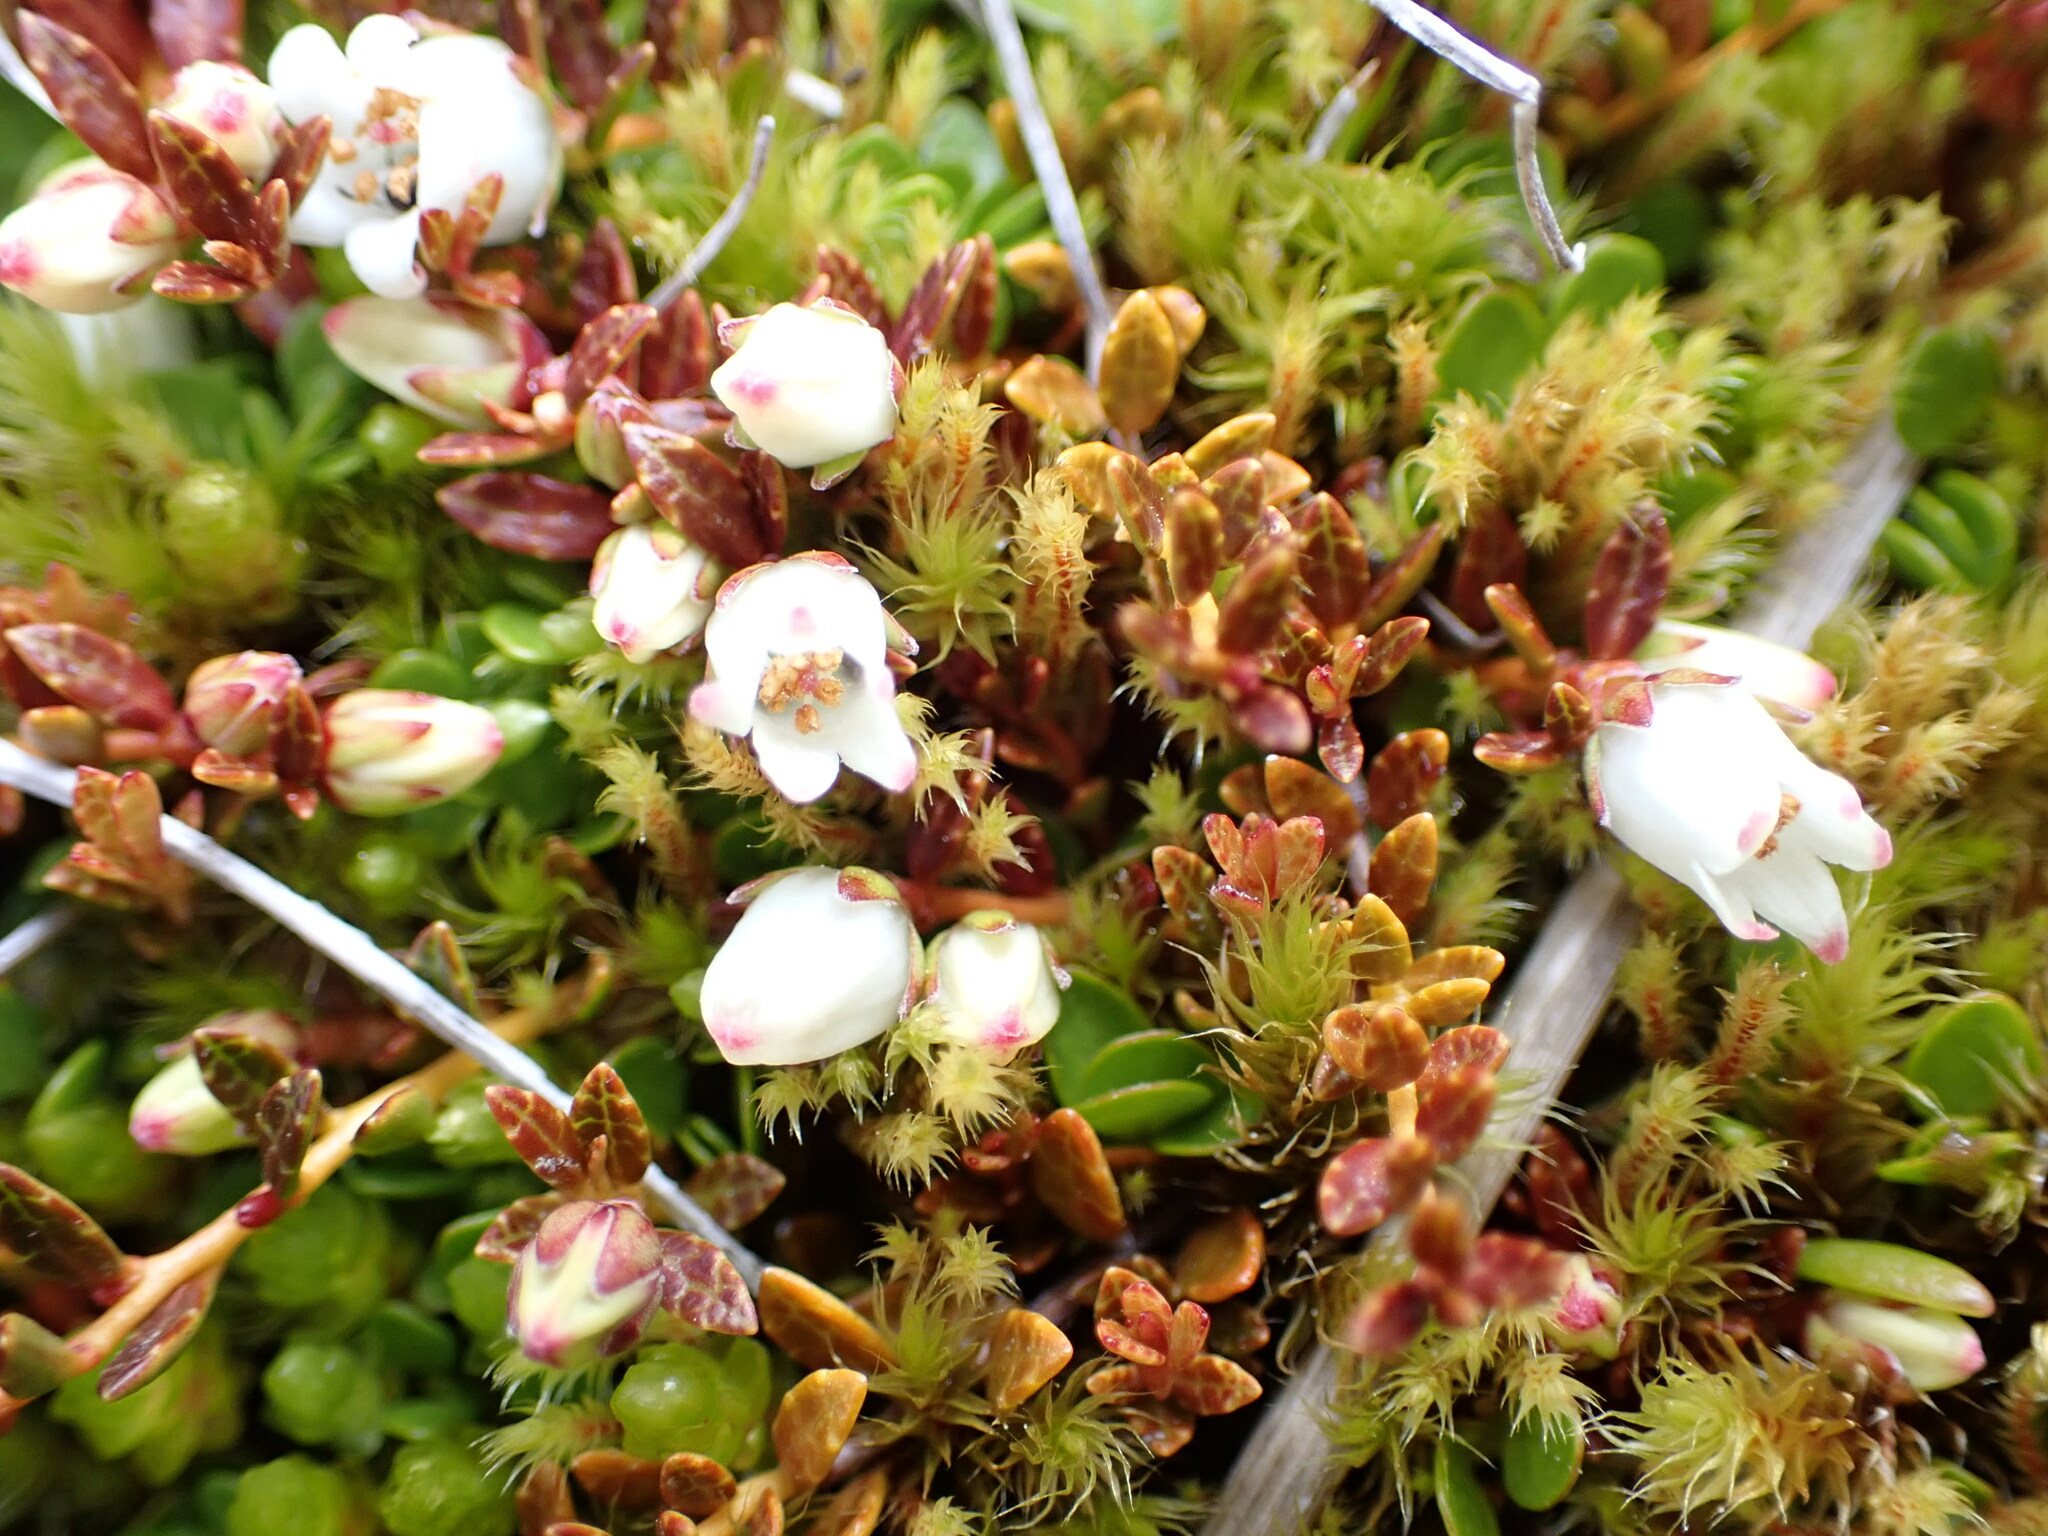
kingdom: Plantae
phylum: Tracheophyta
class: Magnoliopsida
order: Ericales
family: Ericaceae
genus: Gaultheria
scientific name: Gaultheria parvula
